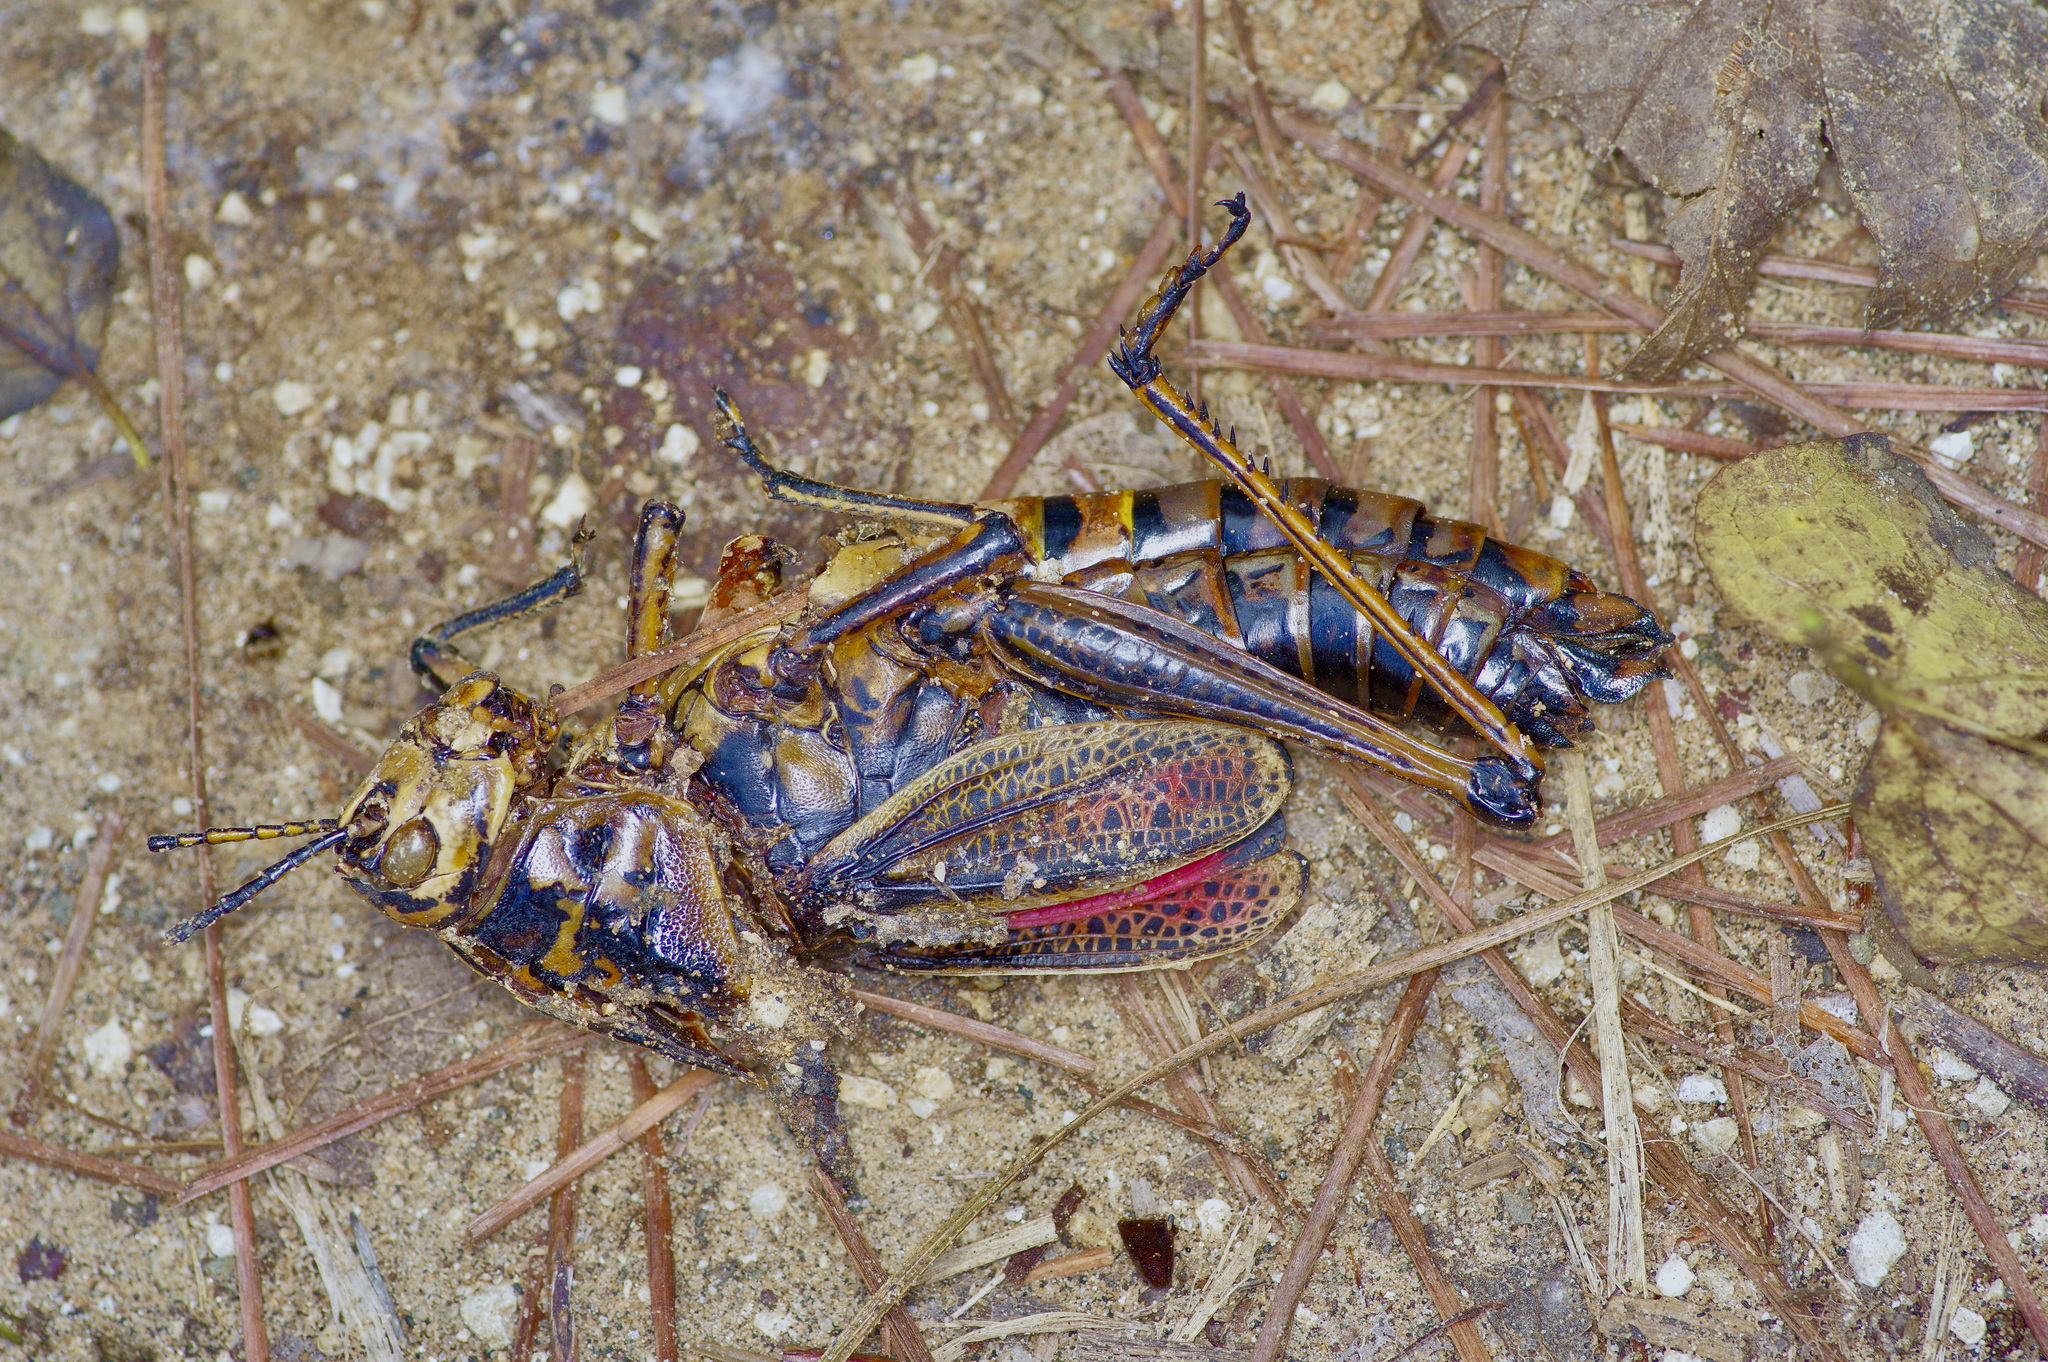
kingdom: Animalia
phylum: Arthropoda
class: Insecta
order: Orthoptera
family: Romaleidae
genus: Romalea
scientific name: Romalea microptera
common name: Eastern lubber grasshopper
